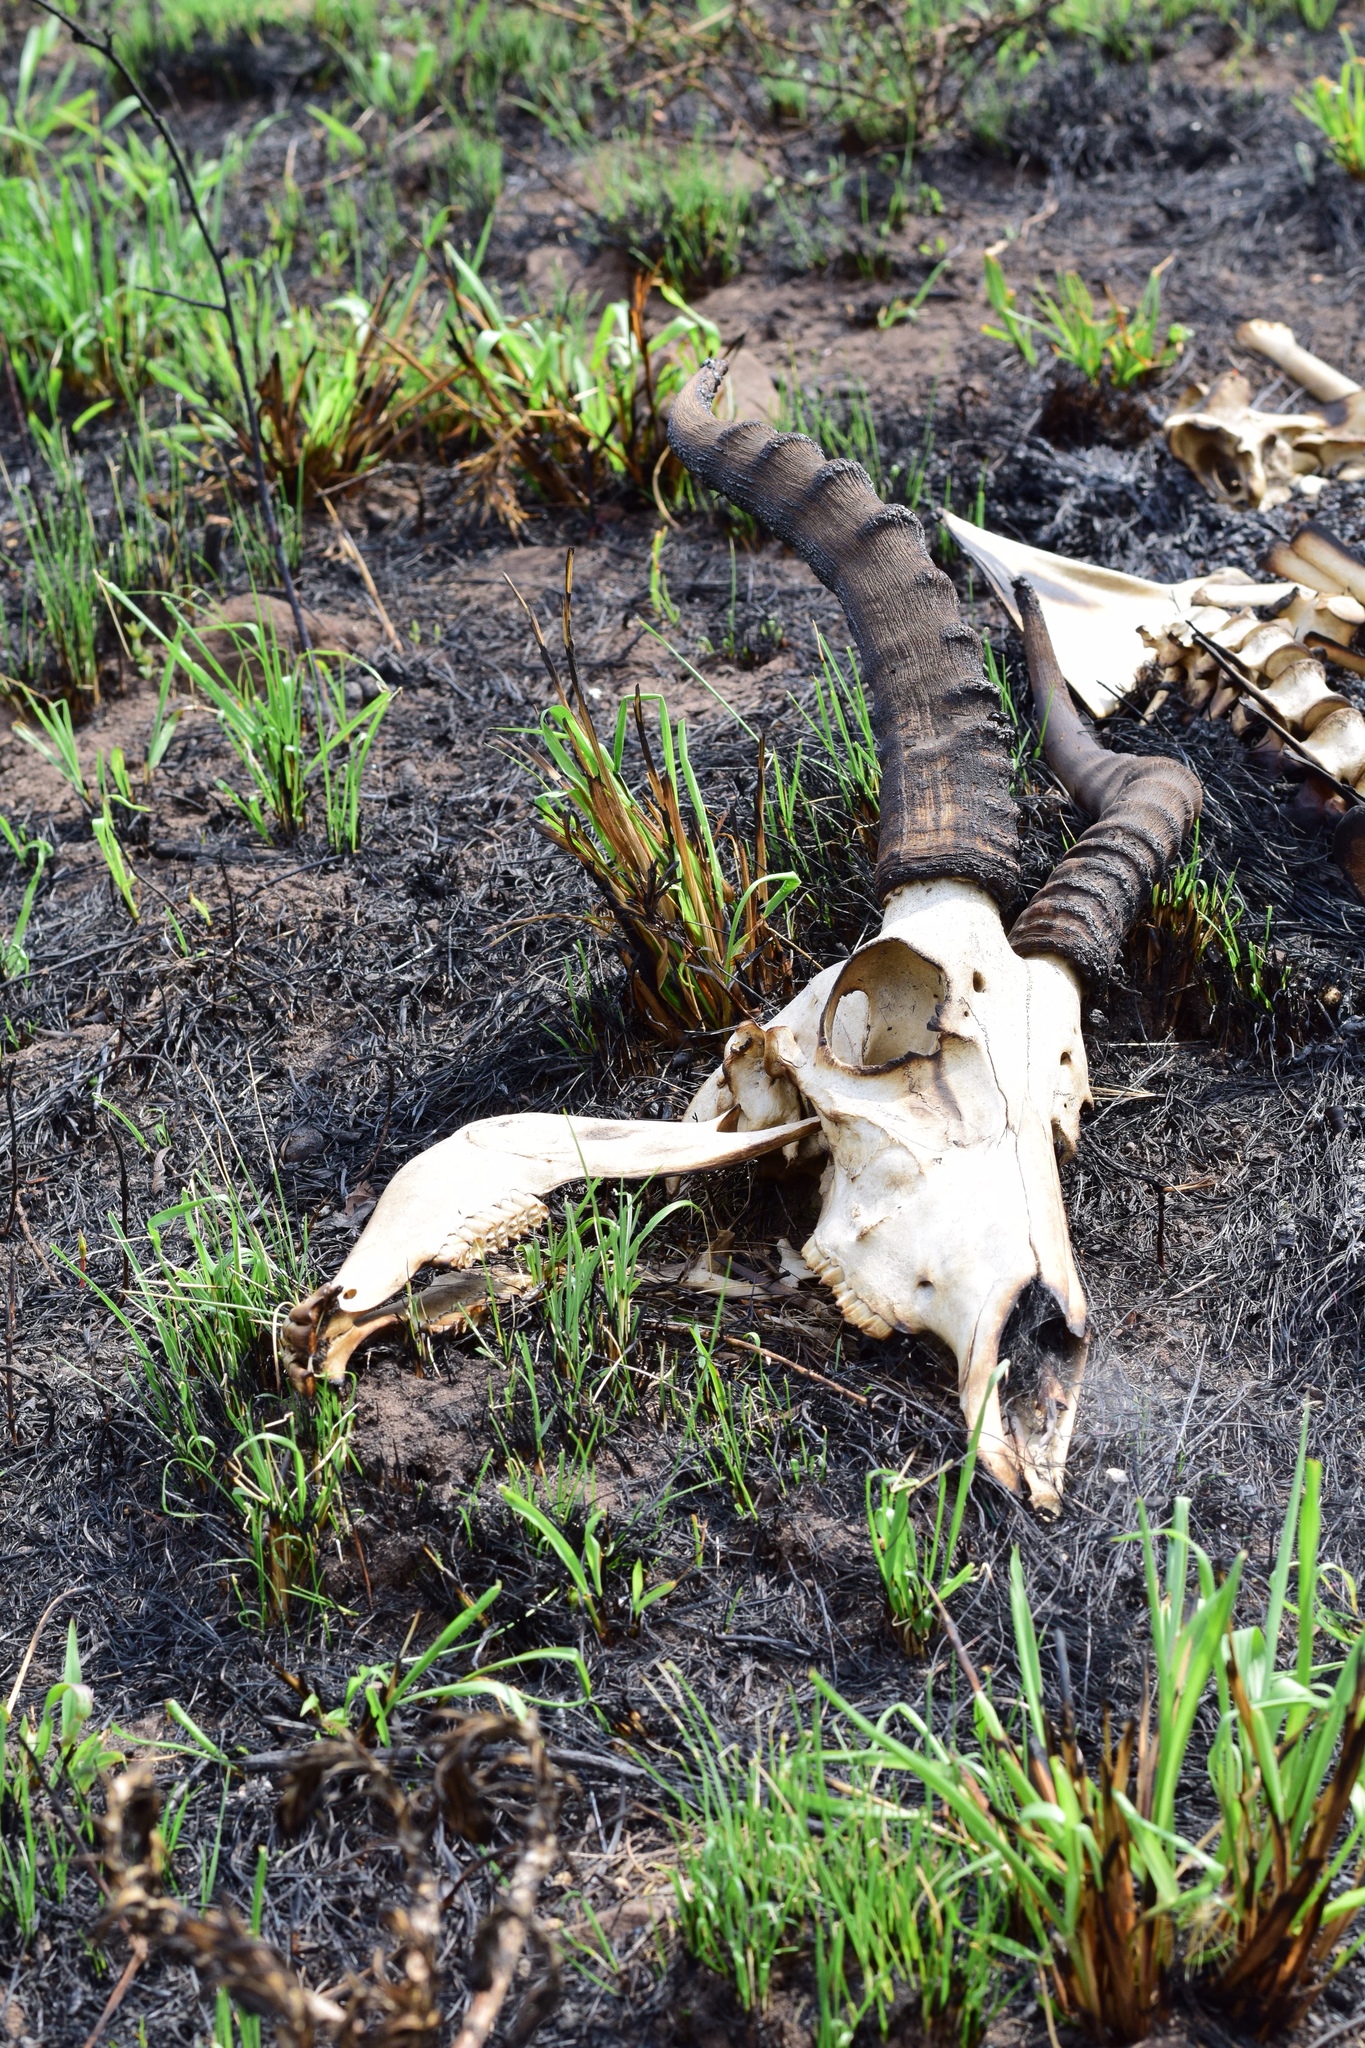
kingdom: Animalia
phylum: Chordata
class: Mammalia
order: Artiodactyla
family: Bovidae
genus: Aepyceros
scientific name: Aepyceros melampus
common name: Impala
